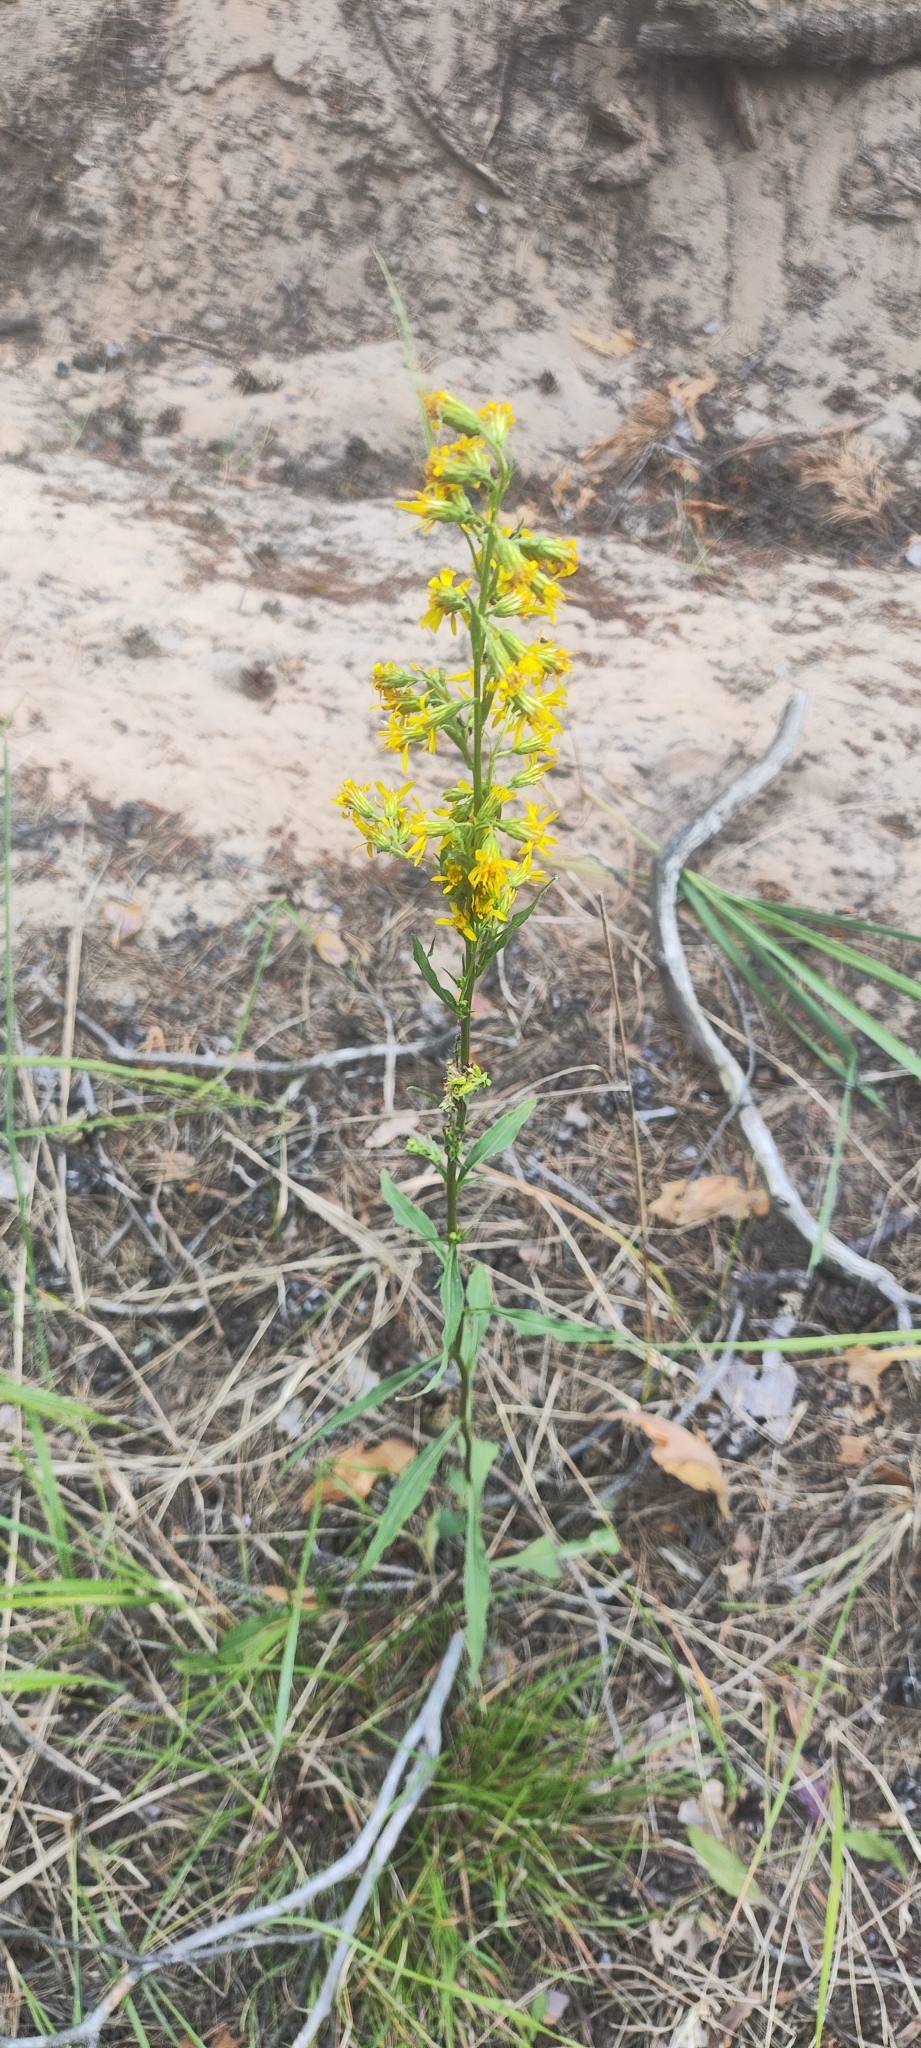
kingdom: Plantae
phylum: Tracheophyta
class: Magnoliopsida
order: Asterales
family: Asteraceae
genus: Solidago
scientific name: Solidago virgaurea
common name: Goldenrod
